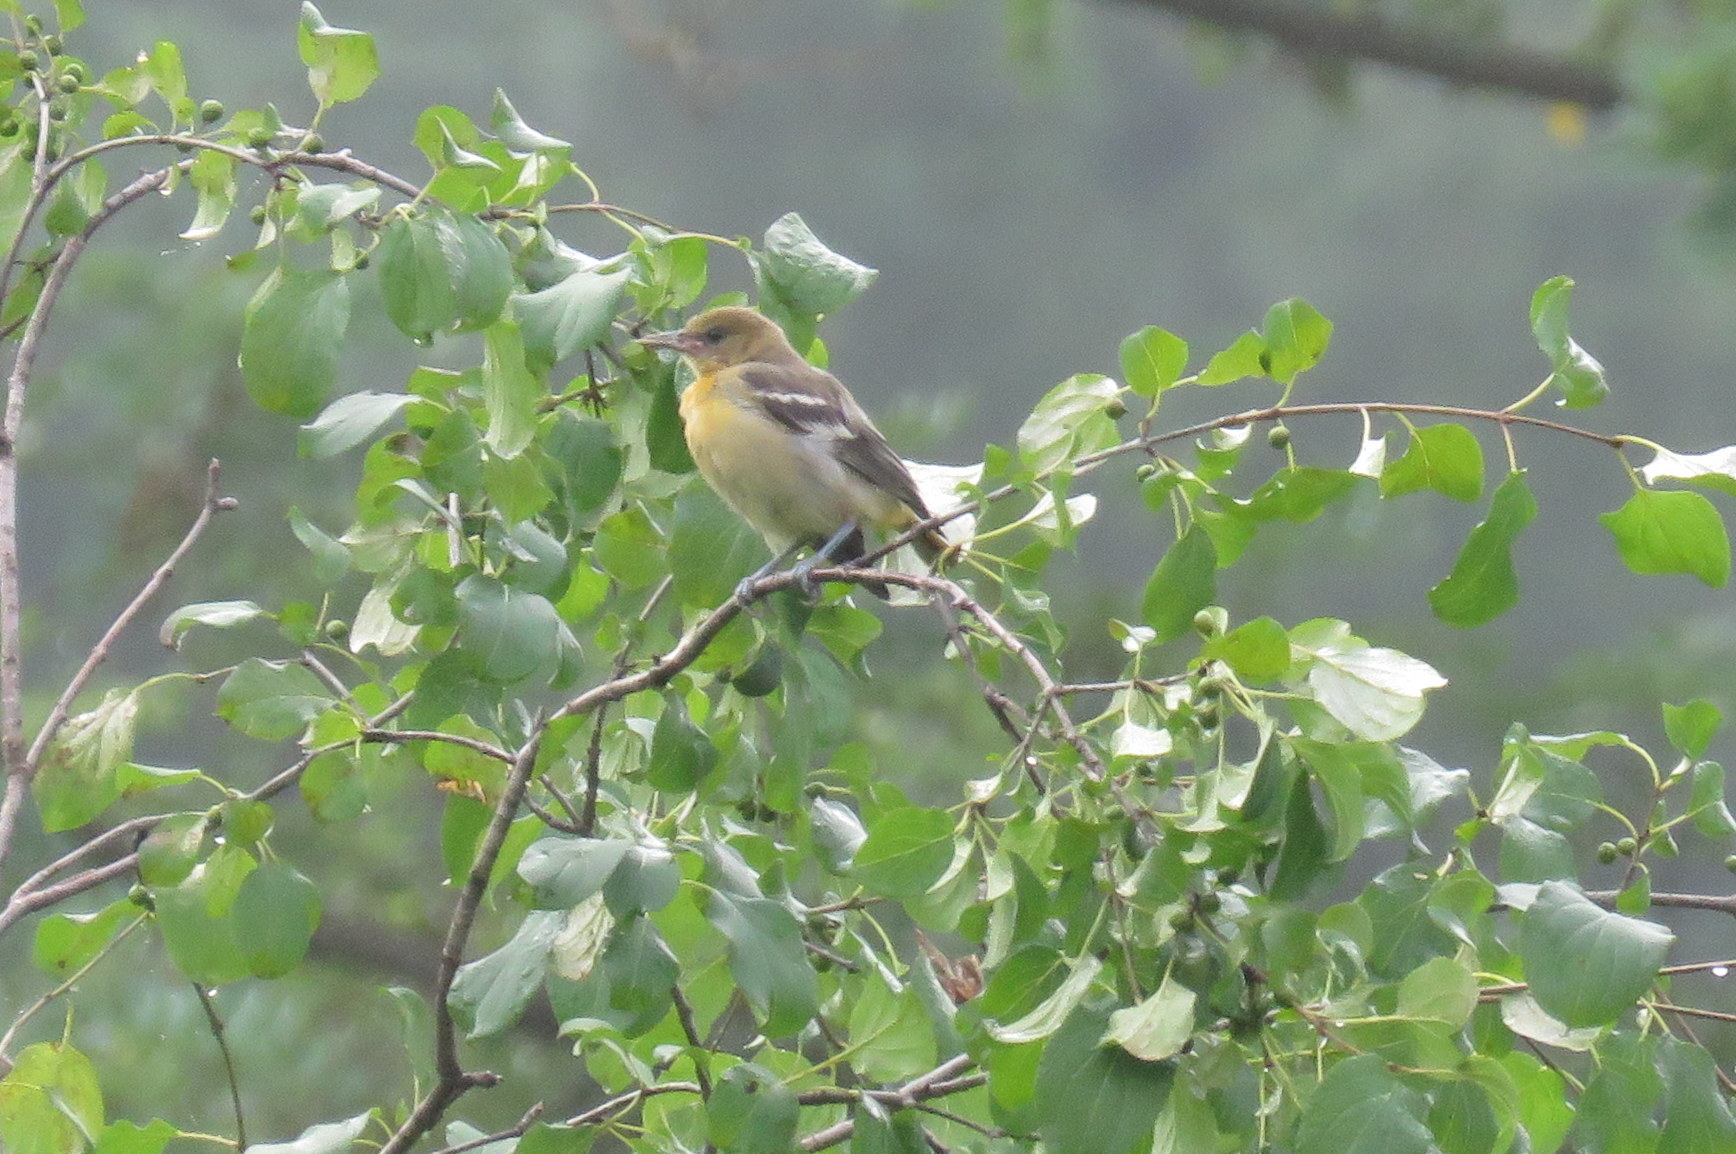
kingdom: Animalia
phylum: Chordata
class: Aves
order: Passeriformes
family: Icteridae
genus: Icterus
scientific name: Icterus galbula
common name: Baltimore oriole
